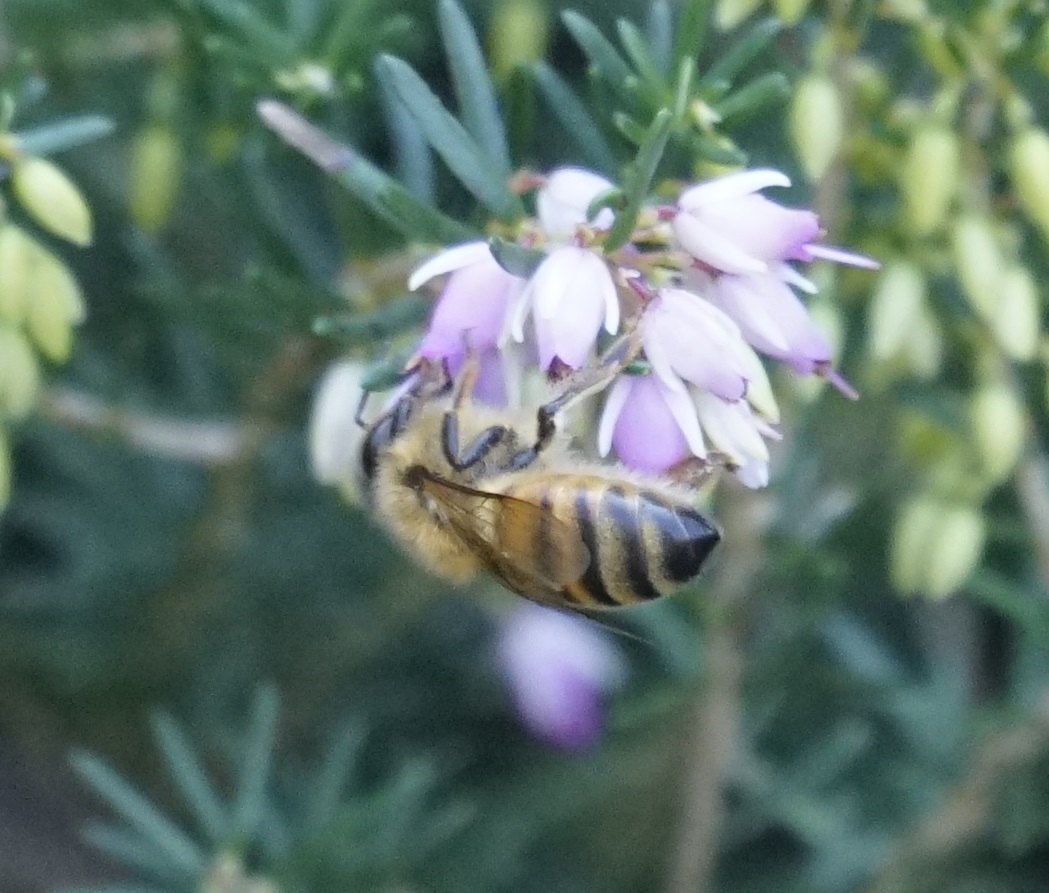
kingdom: Animalia
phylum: Arthropoda
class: Insecta
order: Hymenoptera
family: Apidae
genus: Apis
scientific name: Apis mellifera
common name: Honey bee
